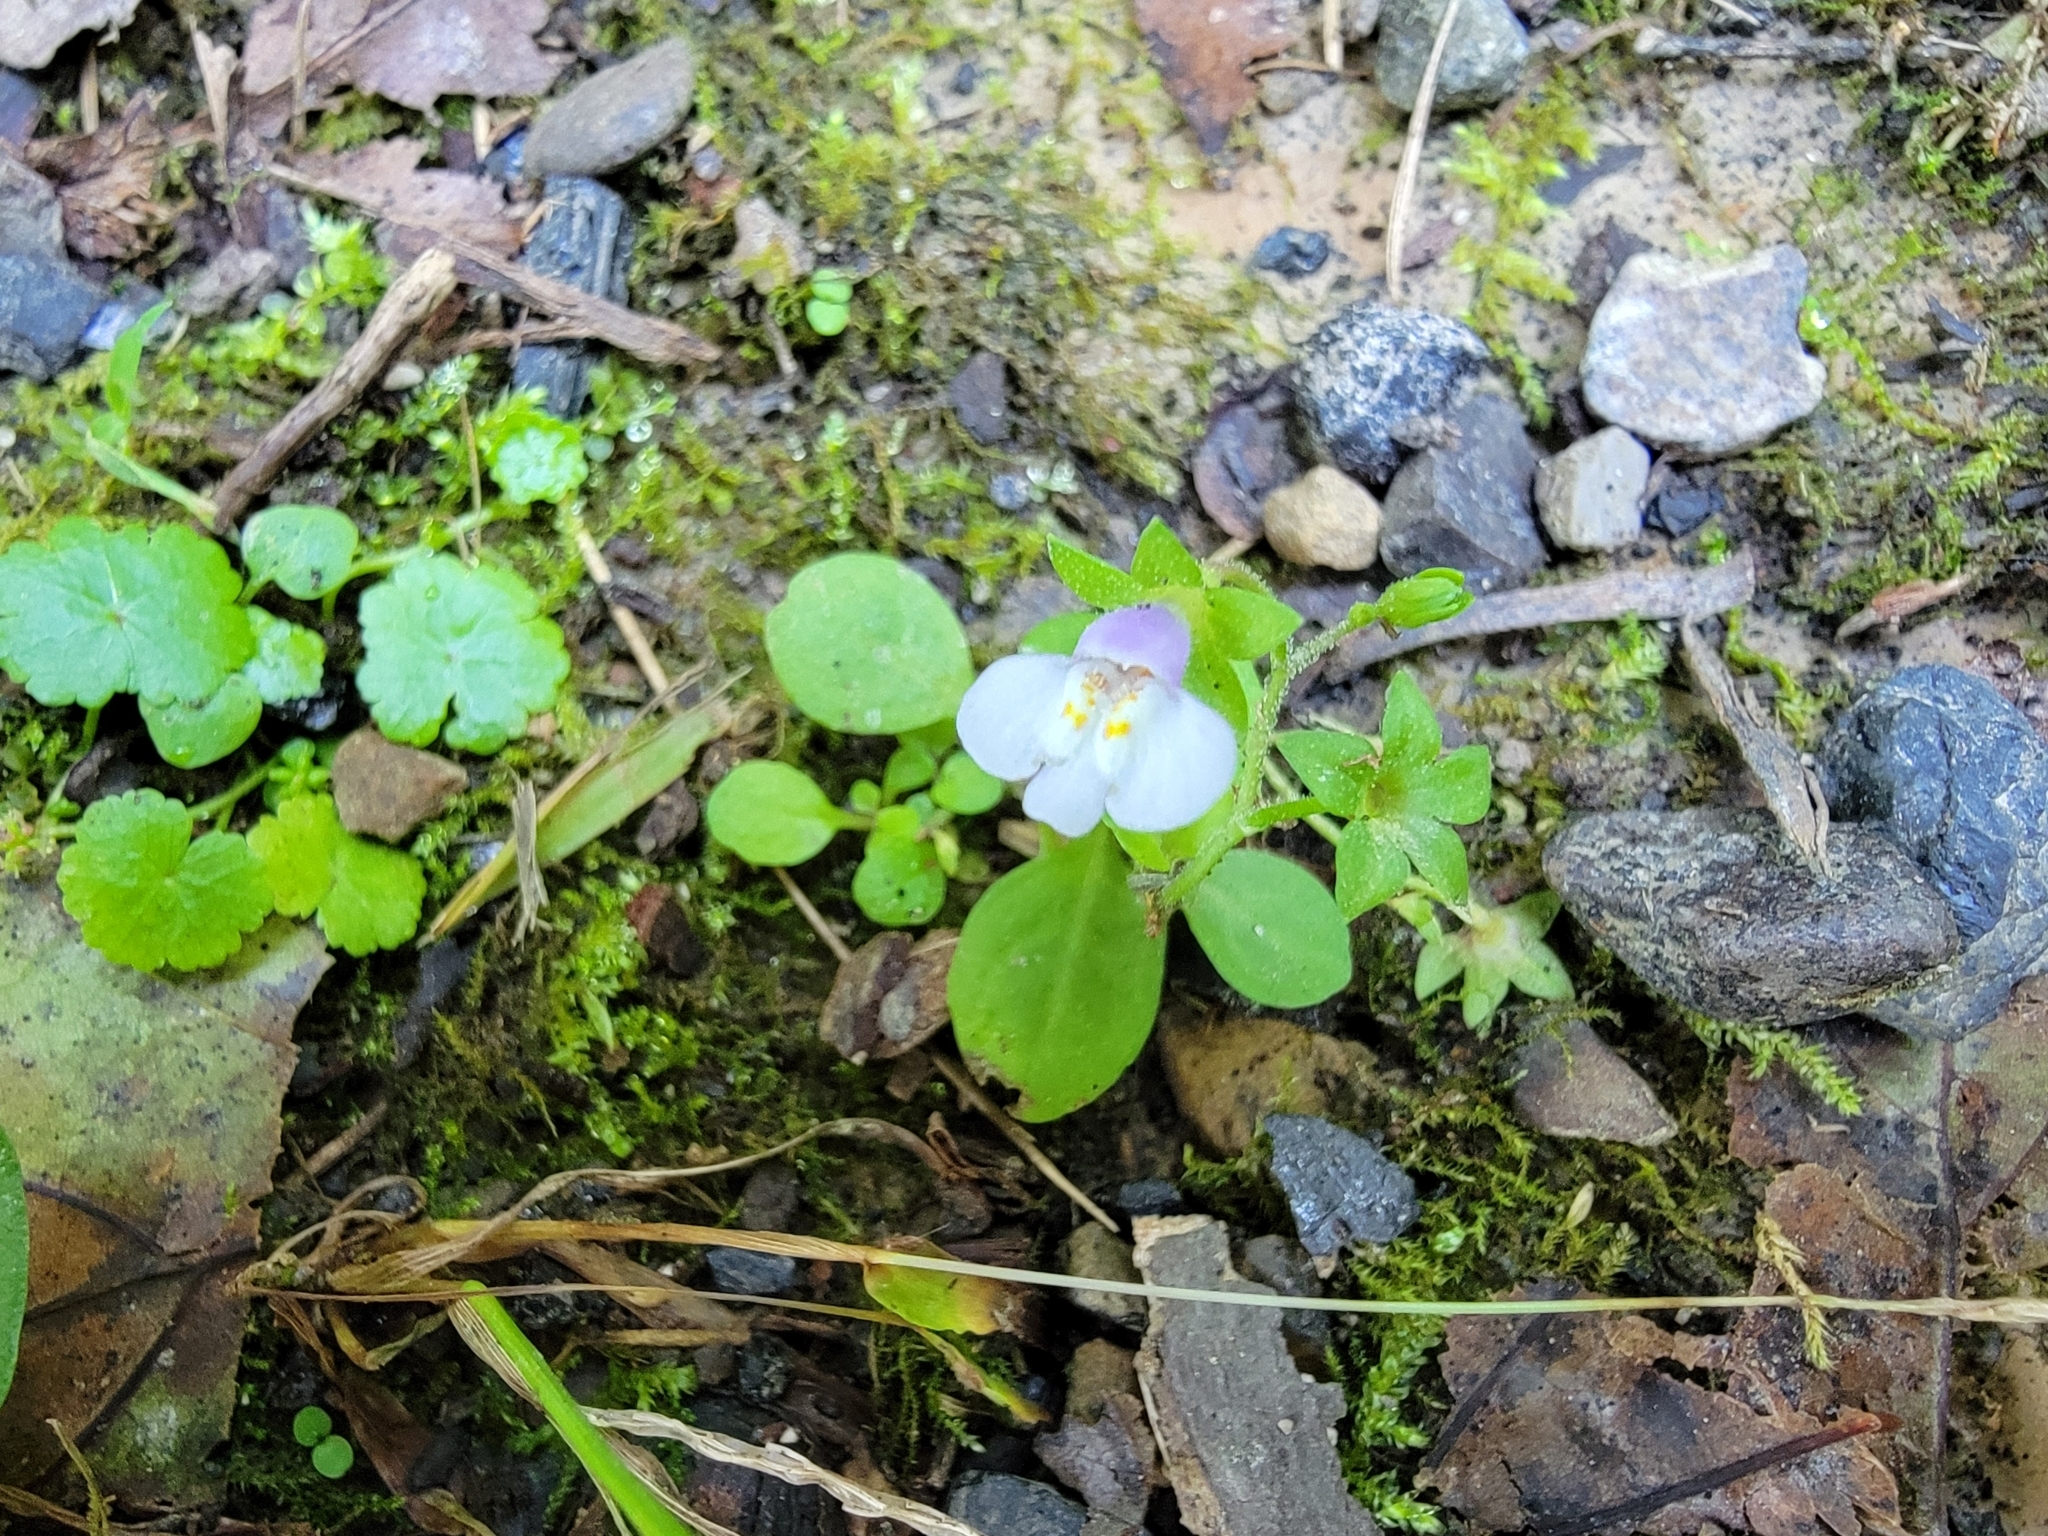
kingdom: Plantae
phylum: Tracheophyta
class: Magnoliopsida
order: Lamiales
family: Mazaceae
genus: Mazus
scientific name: Mazus pumilus
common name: Japanese mazus
